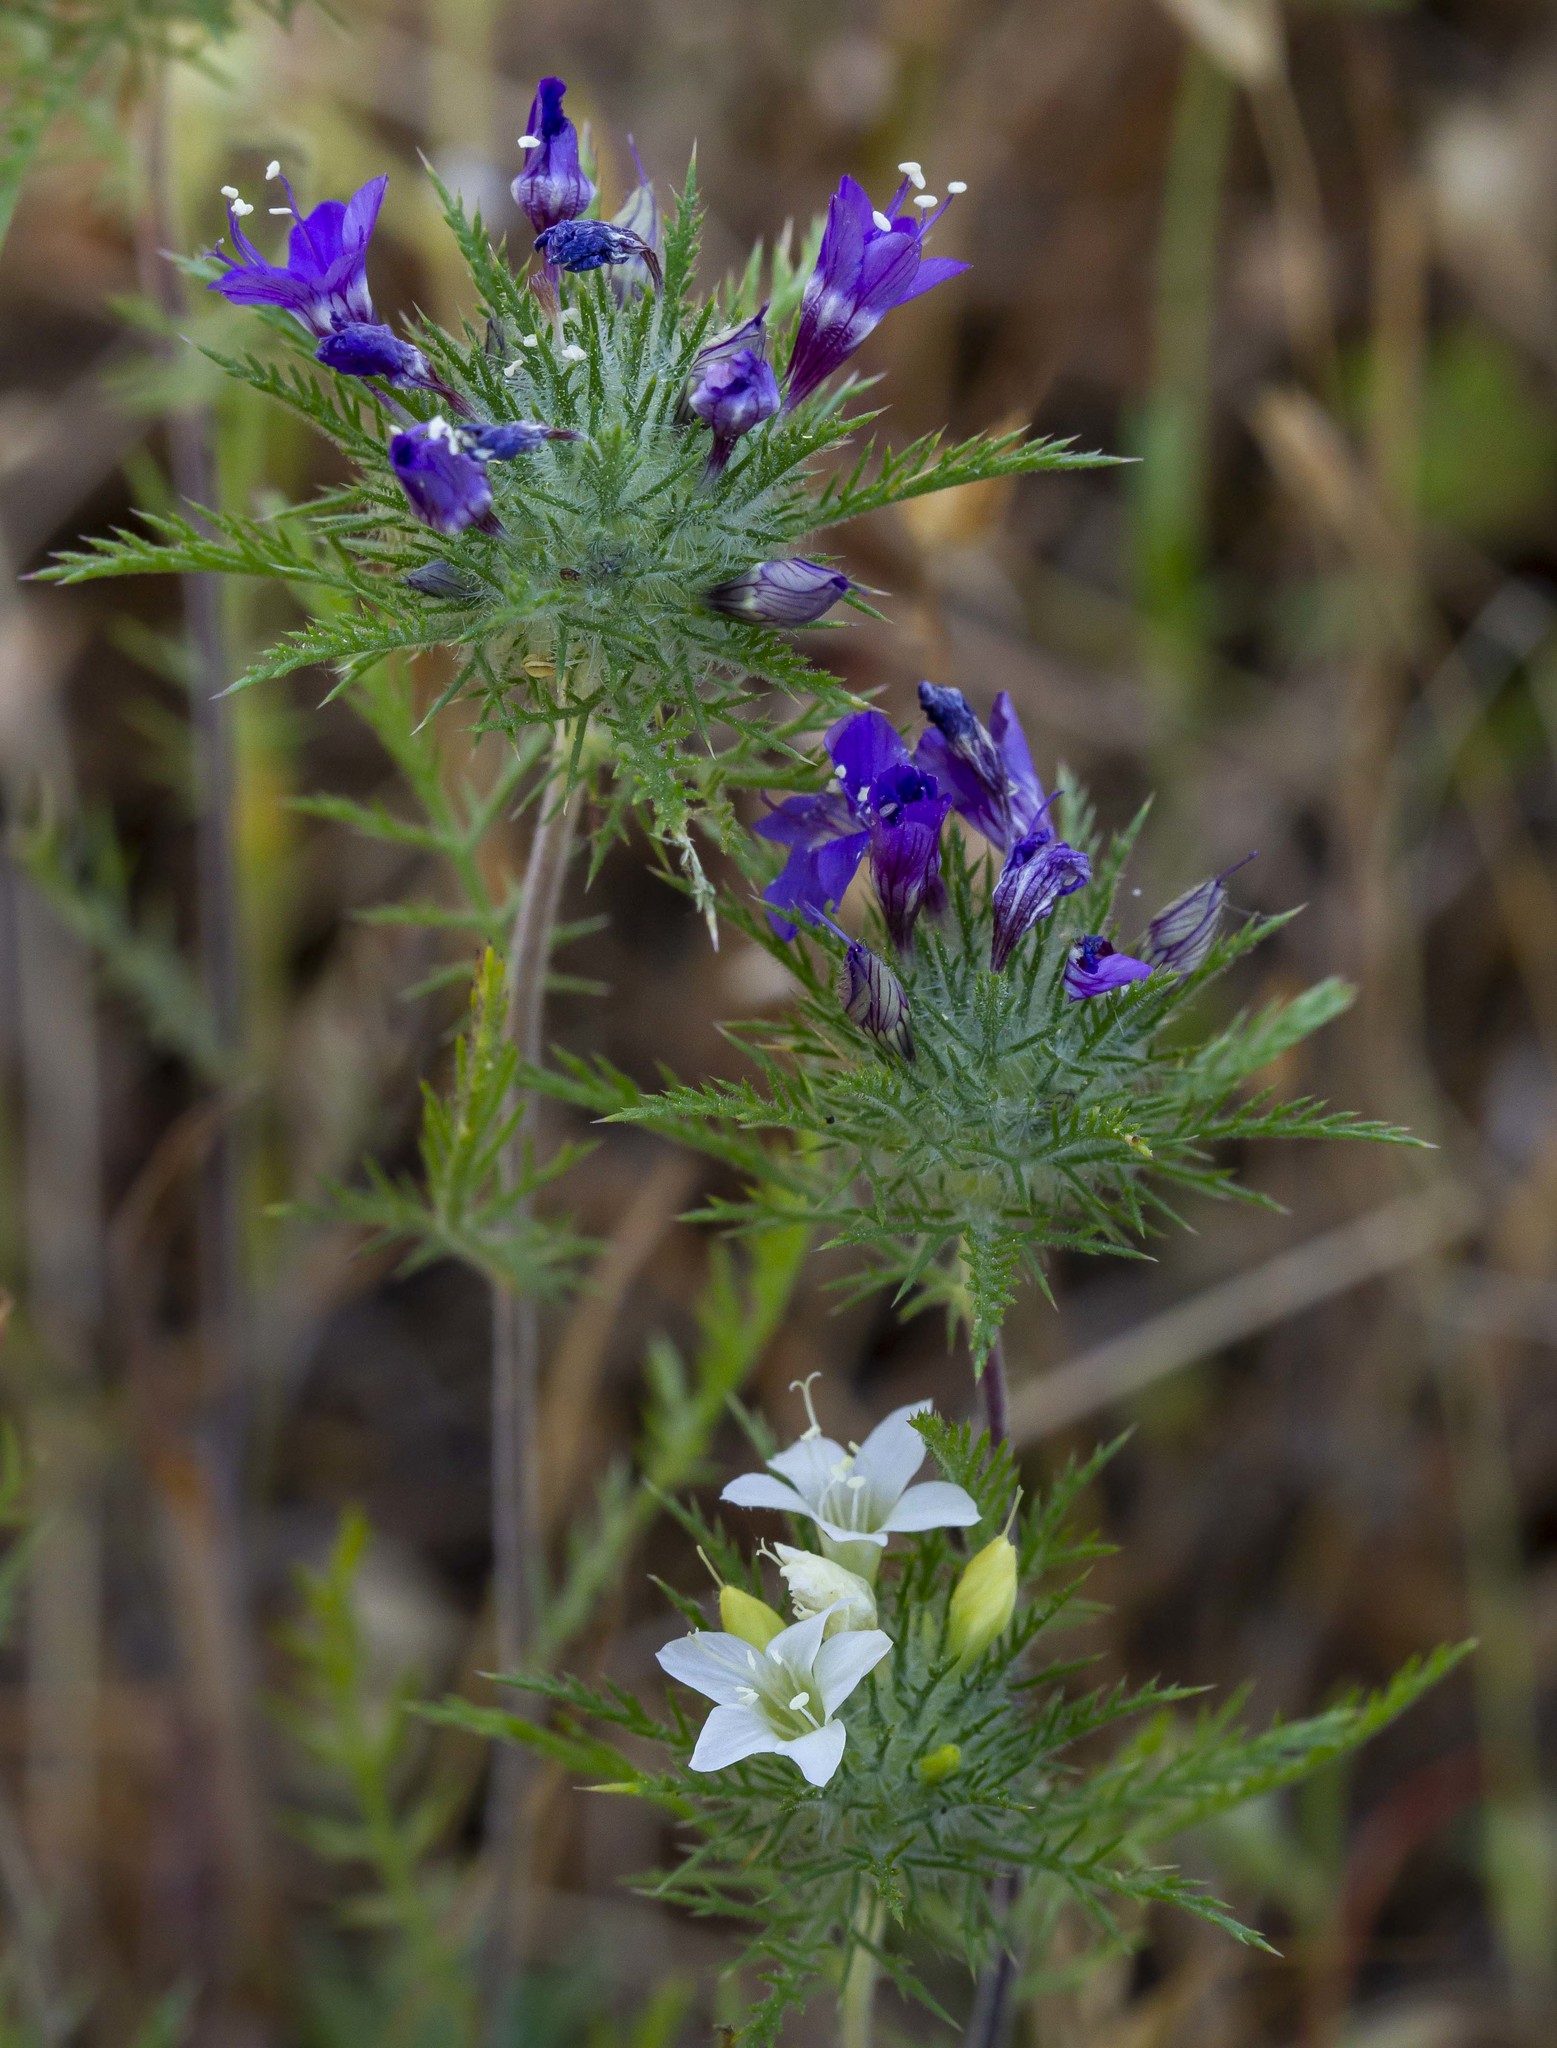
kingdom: Plantae
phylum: Tracheophyta
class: Magnoliopsida
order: Ericales
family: Polemoniaceae
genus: Navarretia
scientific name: Navarretia pubescens
